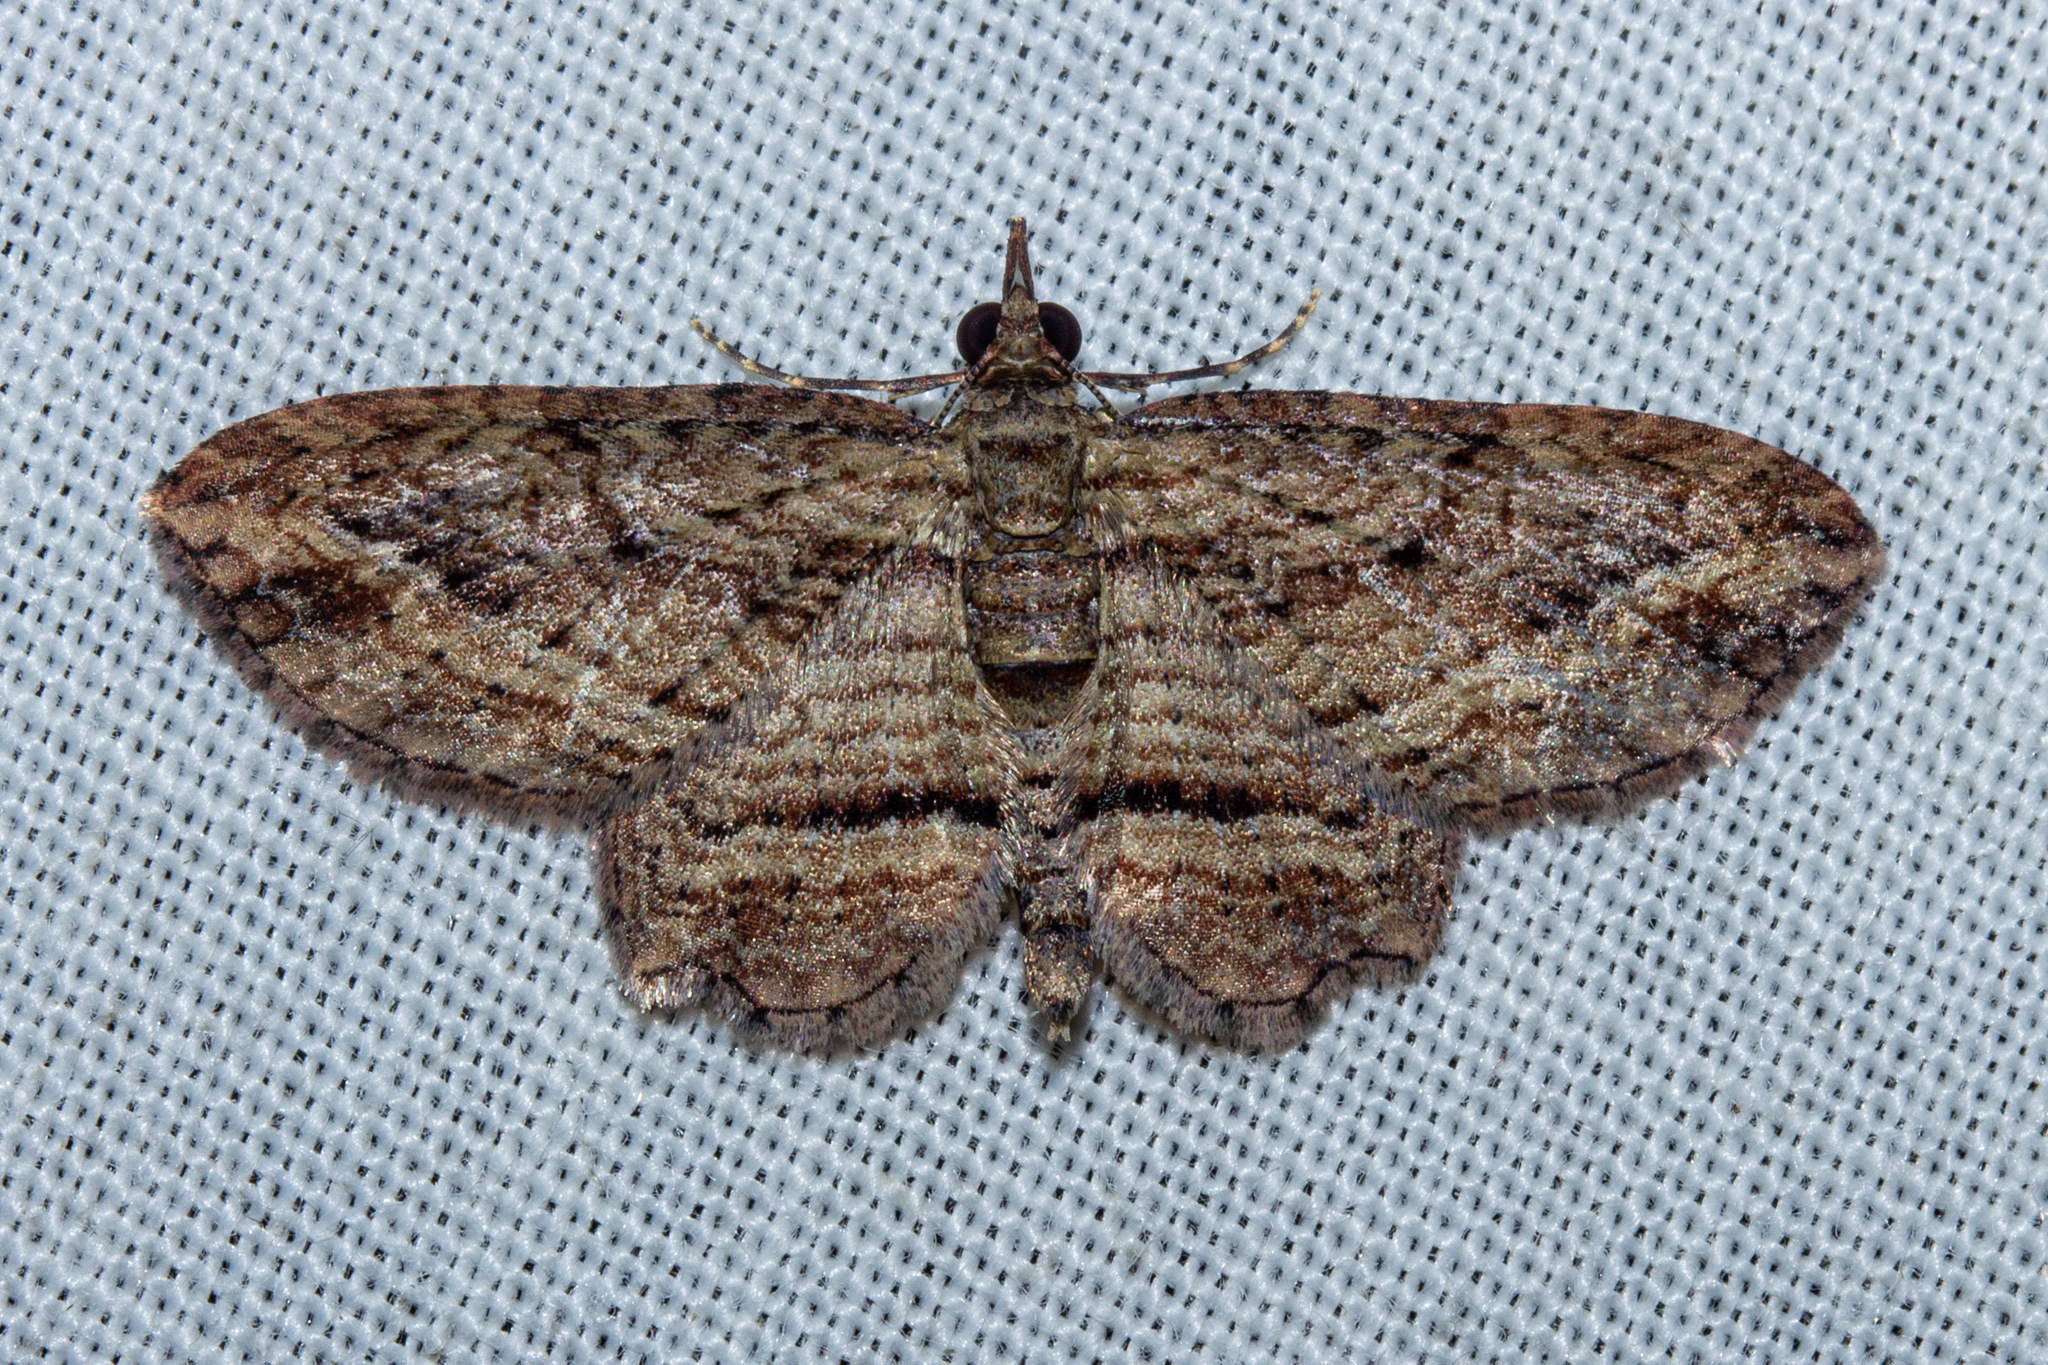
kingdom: Animalia
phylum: Arthropoda
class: Insecta
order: Lepidoptera
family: Geometridae
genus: Chloroclystis
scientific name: Chloroclystis filata
